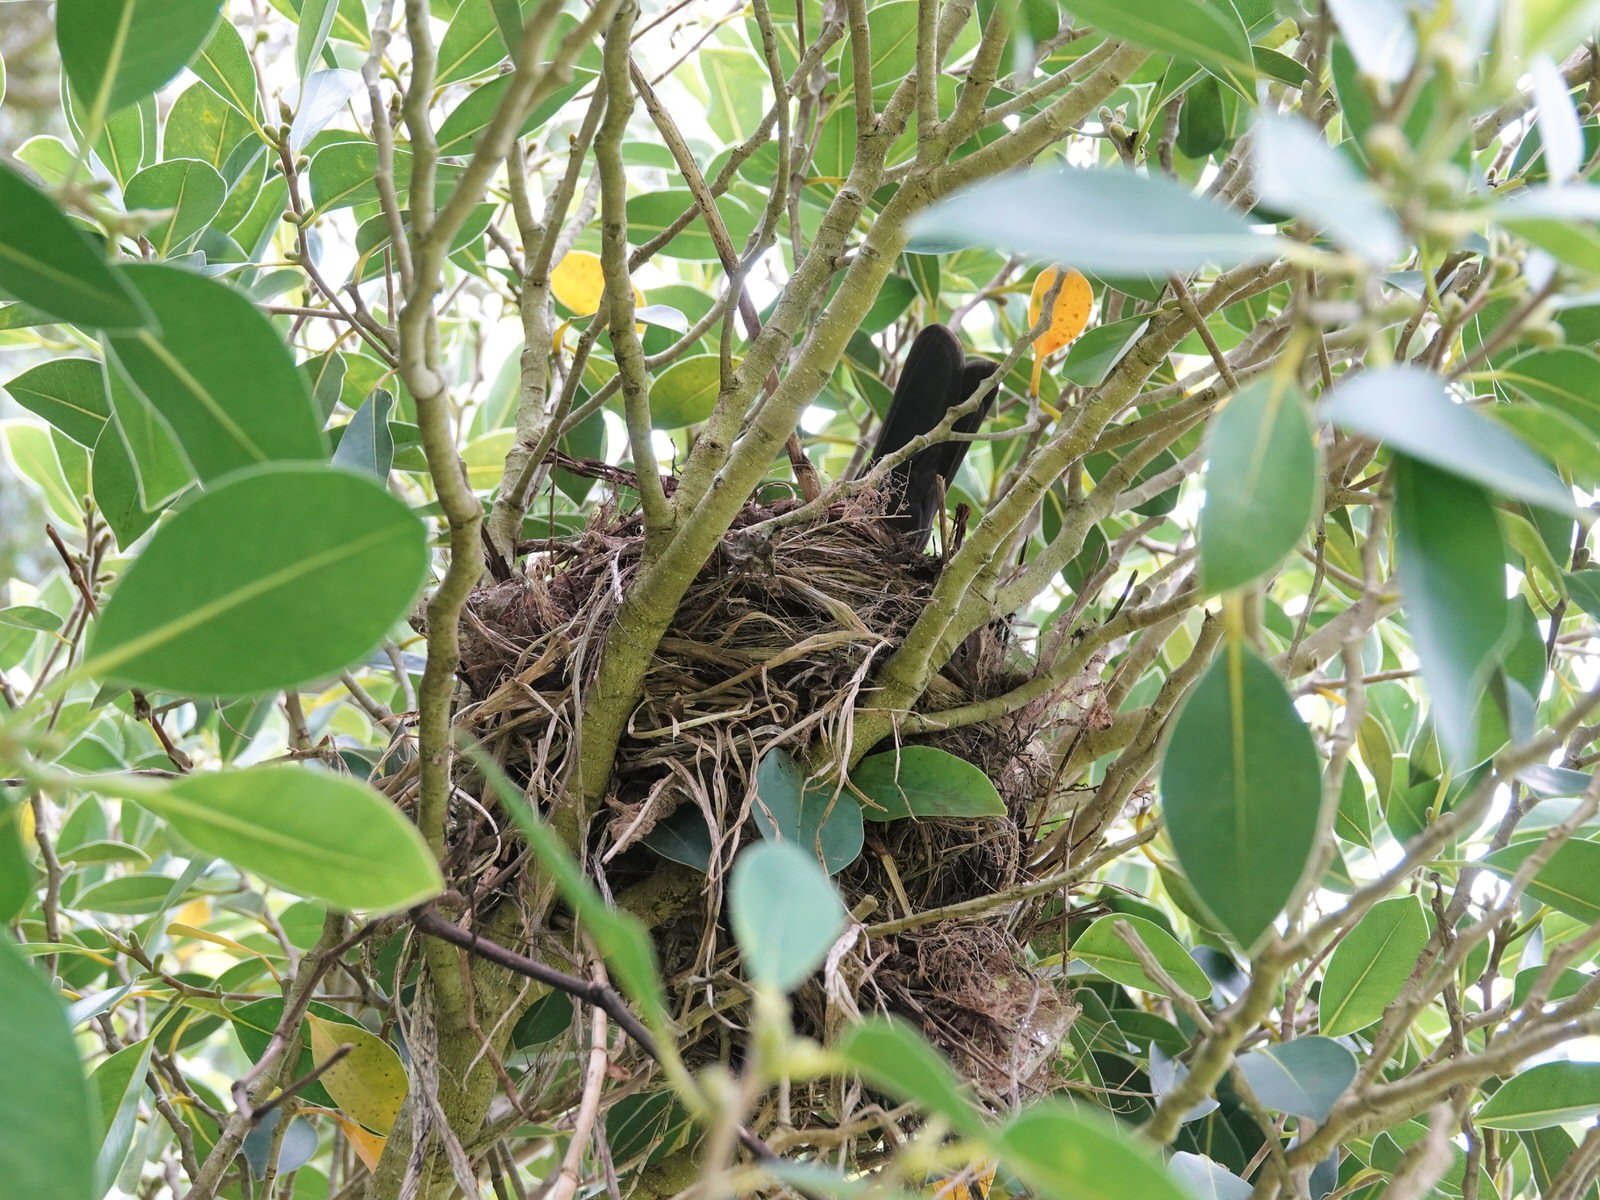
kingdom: Animalia
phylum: Chordata
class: Aves
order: Passeriformes
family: Turdidae
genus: Turdus
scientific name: Turdus merula
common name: Common blackbird
